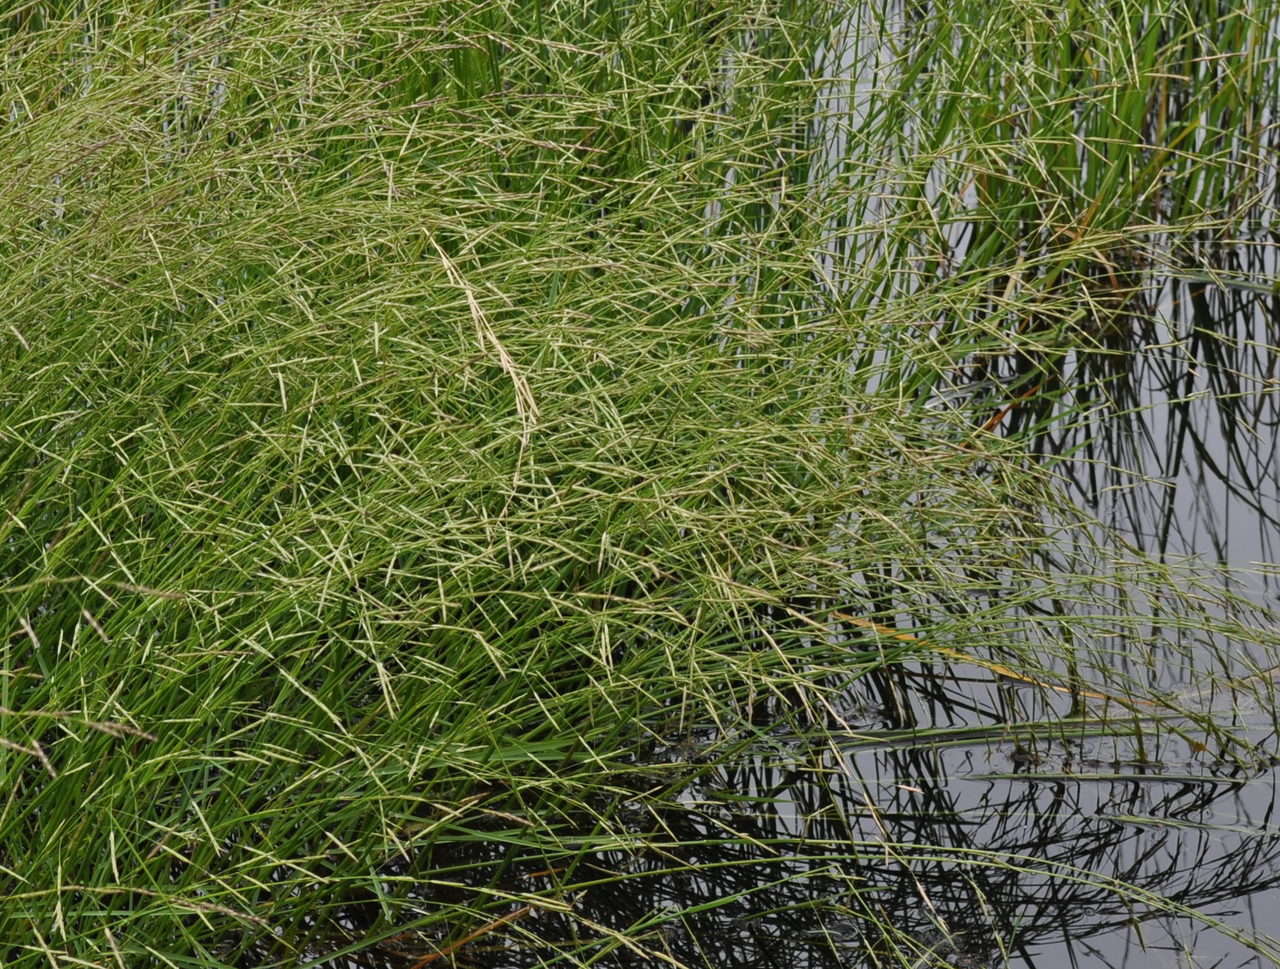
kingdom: Plantae
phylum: Tracheophyta
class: Liliopsida
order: Poales
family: Poaceae
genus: Glyceria
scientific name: Glyceria australis
